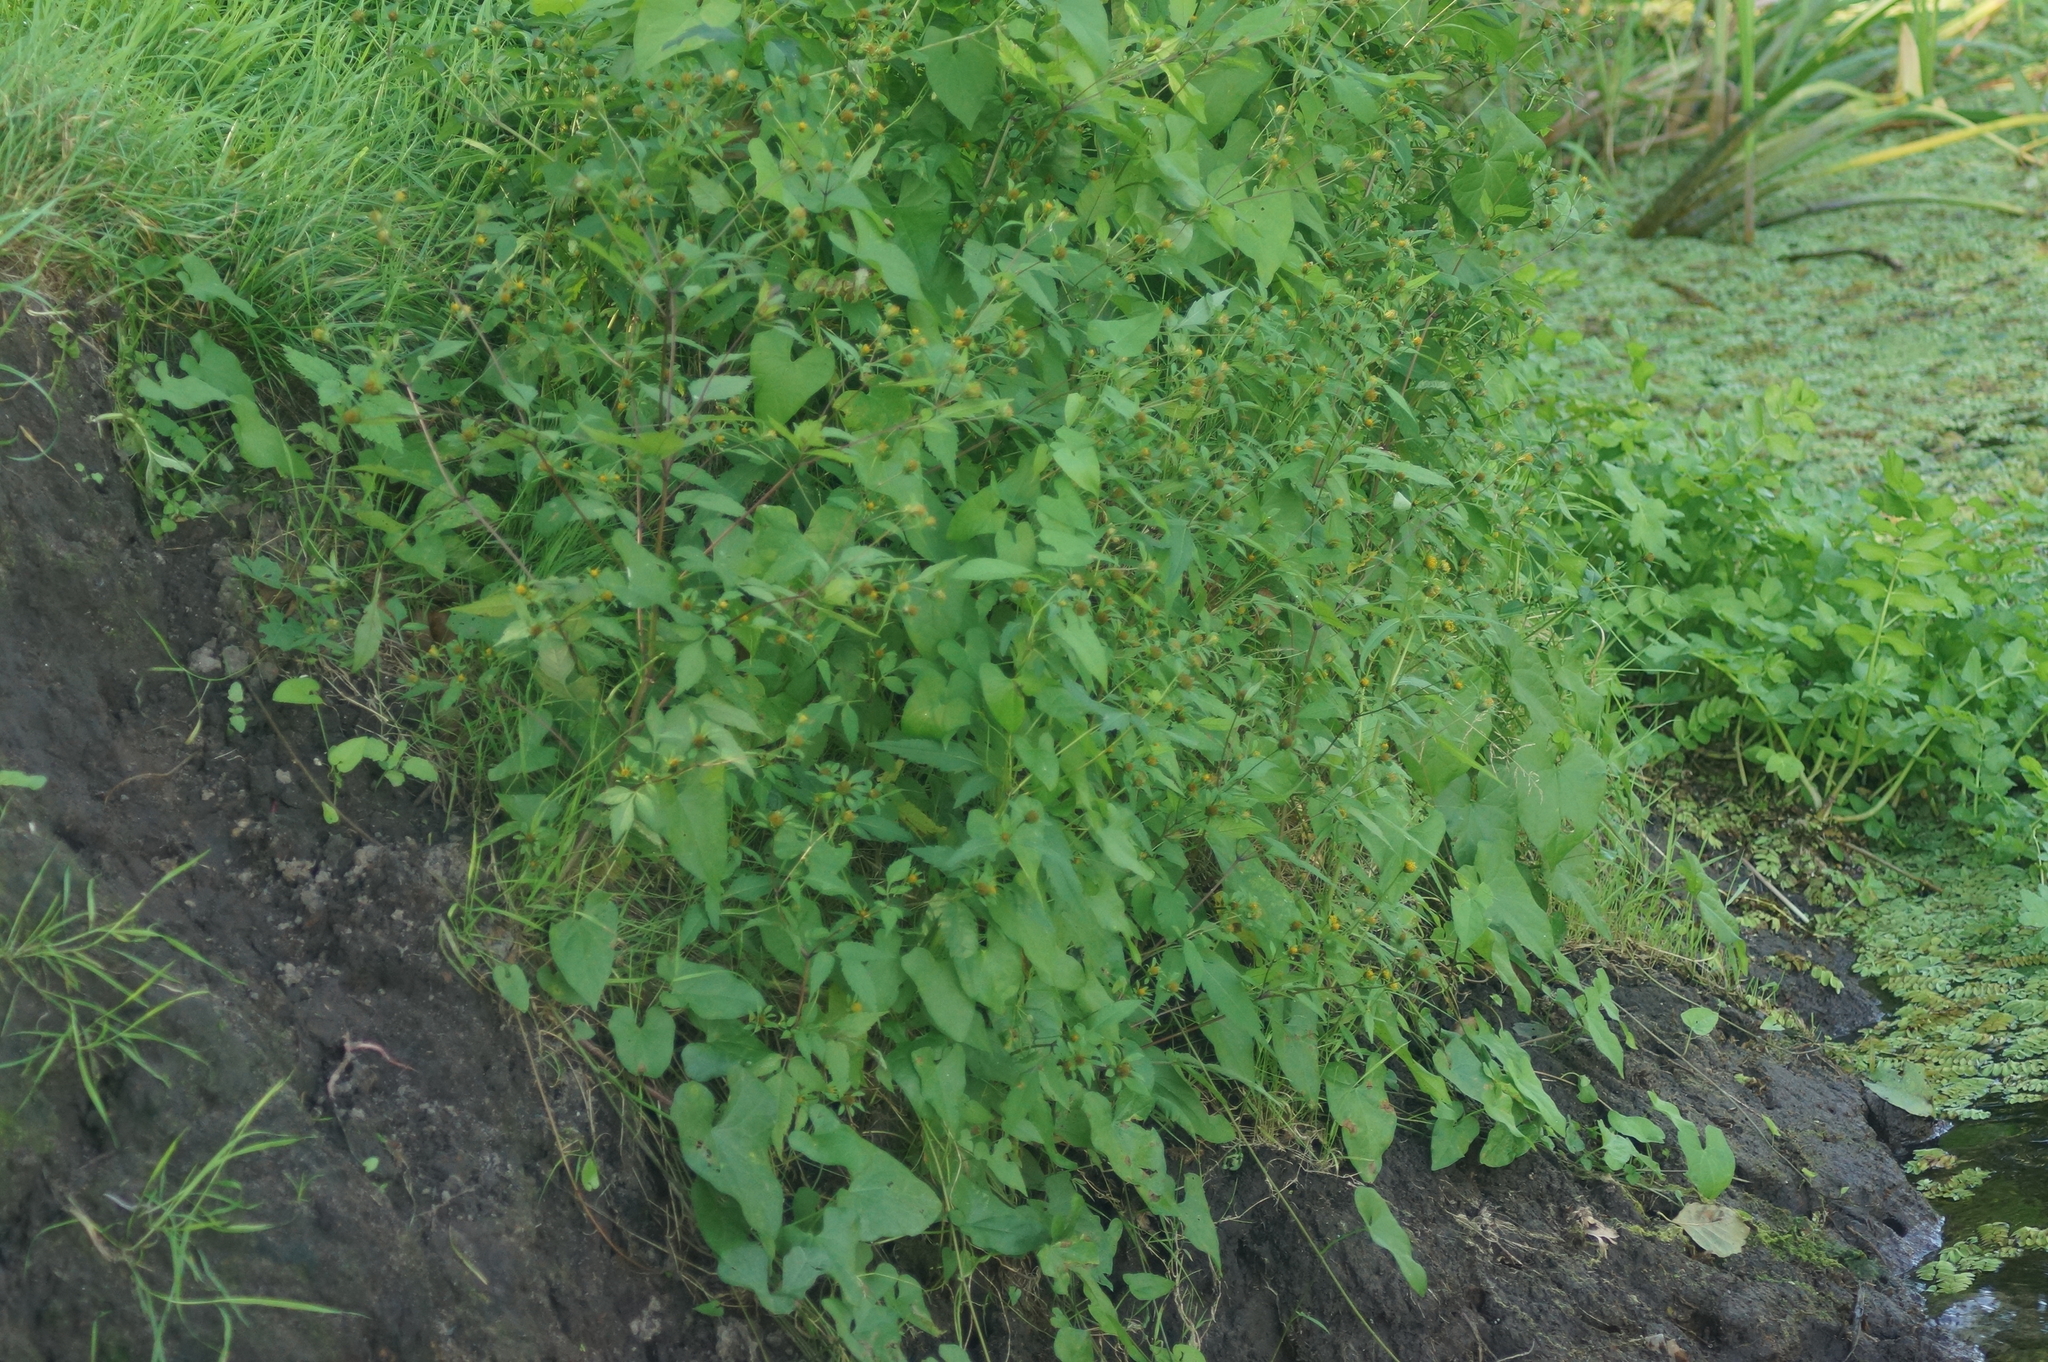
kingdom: Plantae
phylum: Tracheophyta
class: Magnoliopsida
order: Asterales
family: Asteraceae
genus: Bidens
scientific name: Bidens frondosa
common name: Beggarticks
